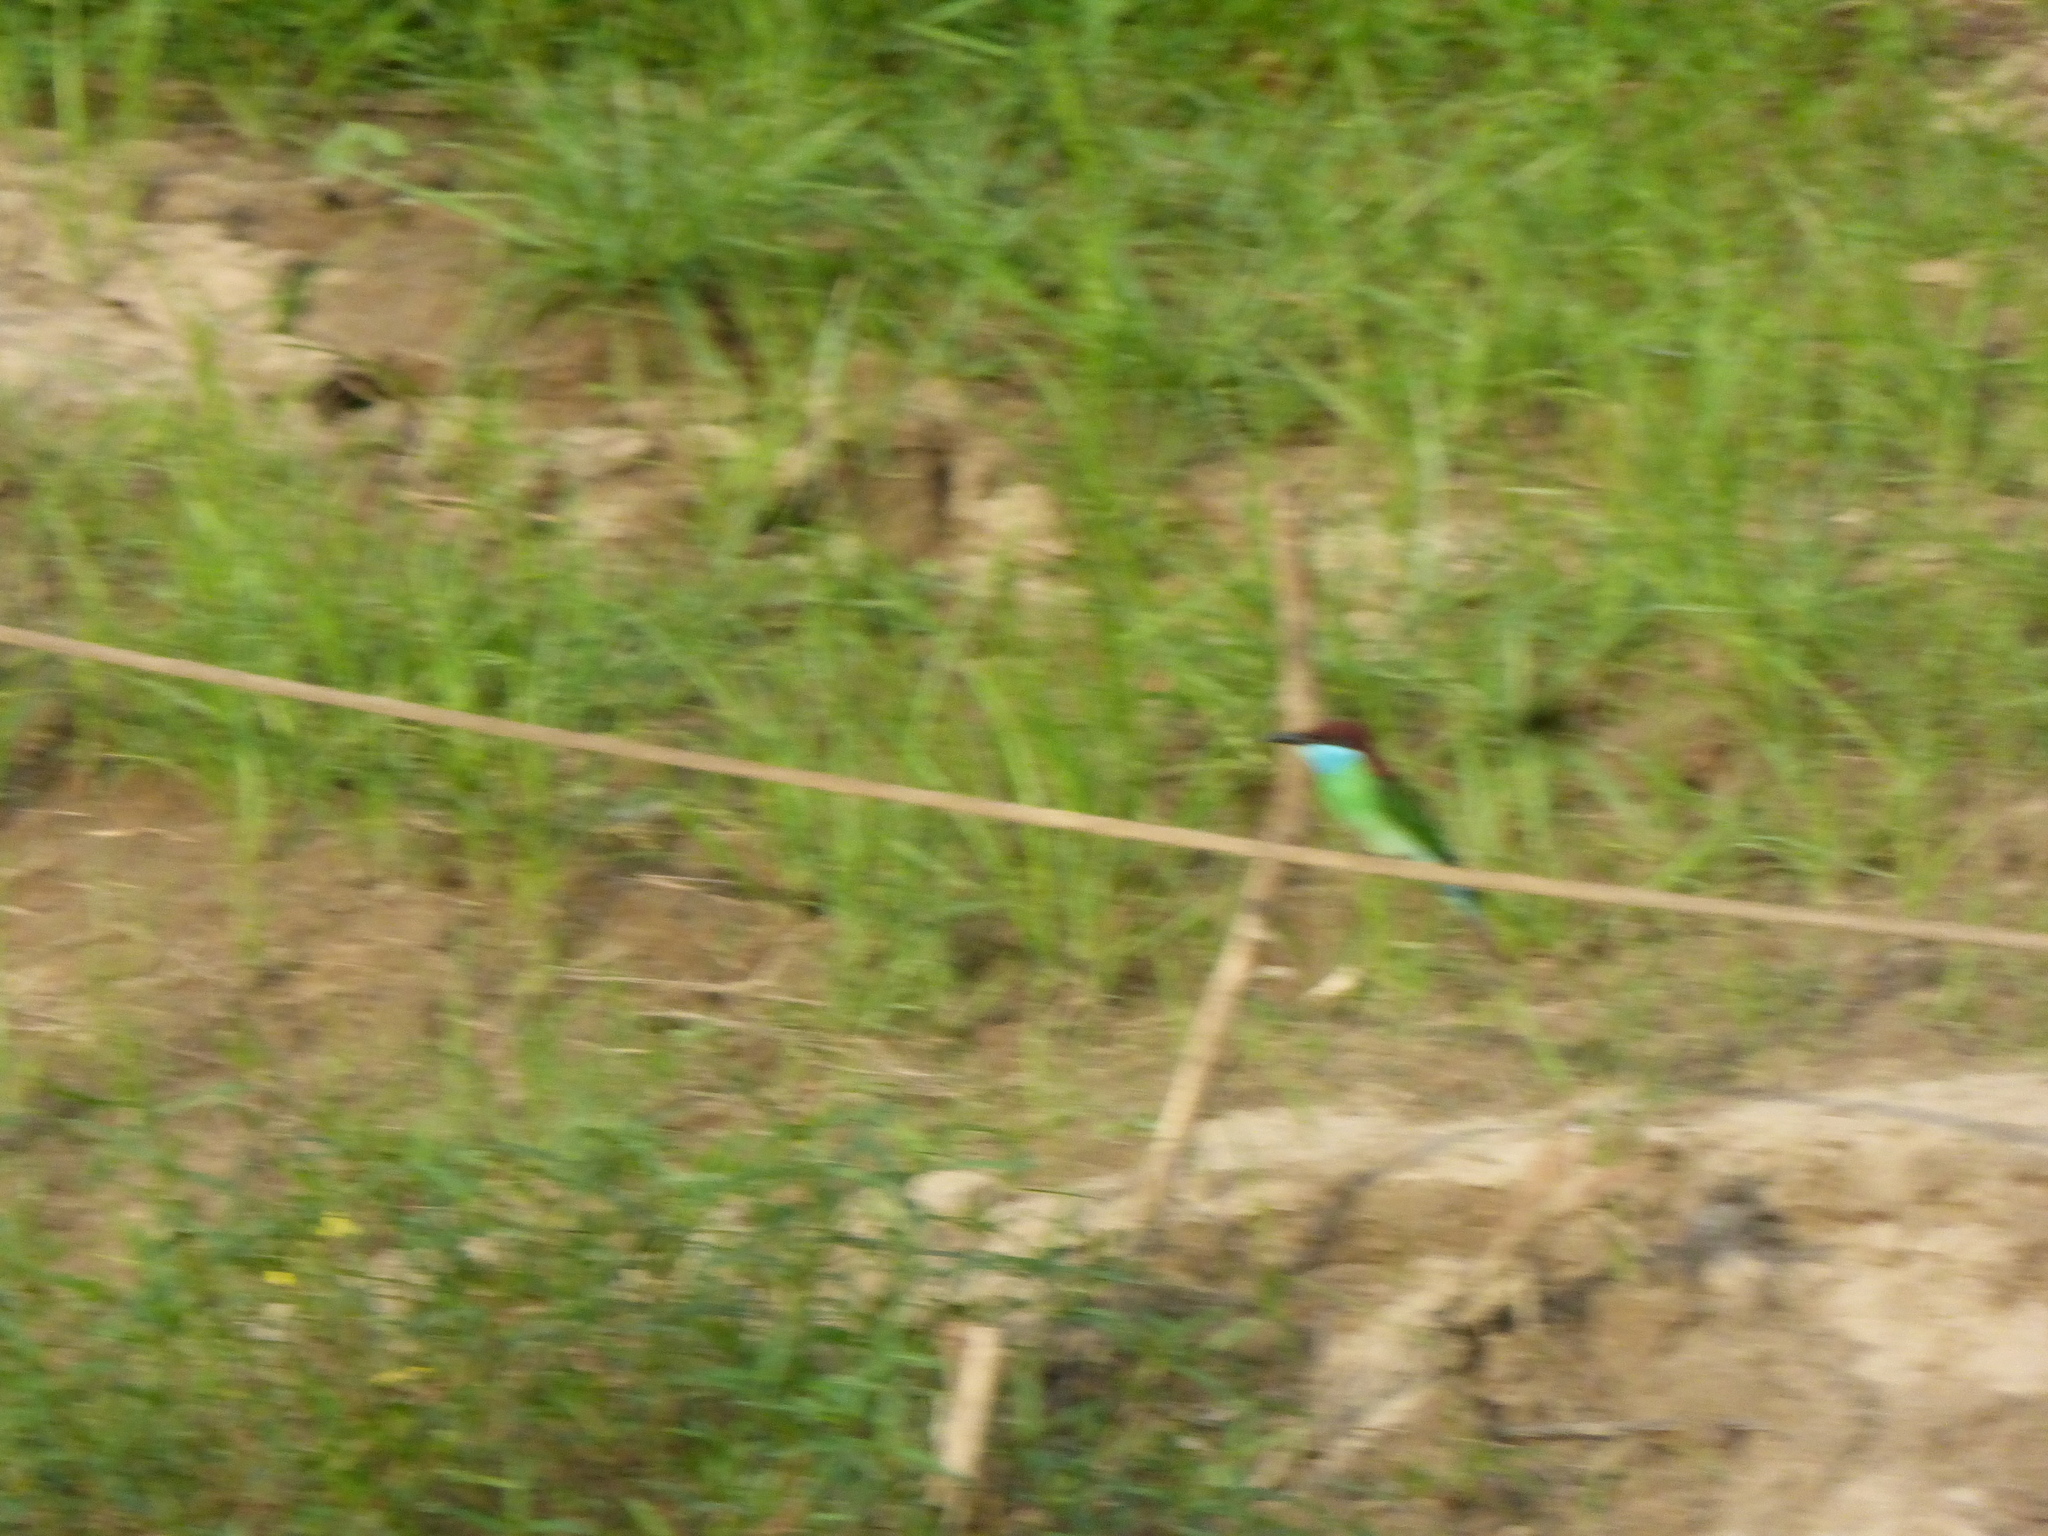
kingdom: Animalia
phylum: Chordata
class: Aves
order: Coraciiformes
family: Meropidae
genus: Merops
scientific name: Merops viridis
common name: Blue-throated bee-eater
